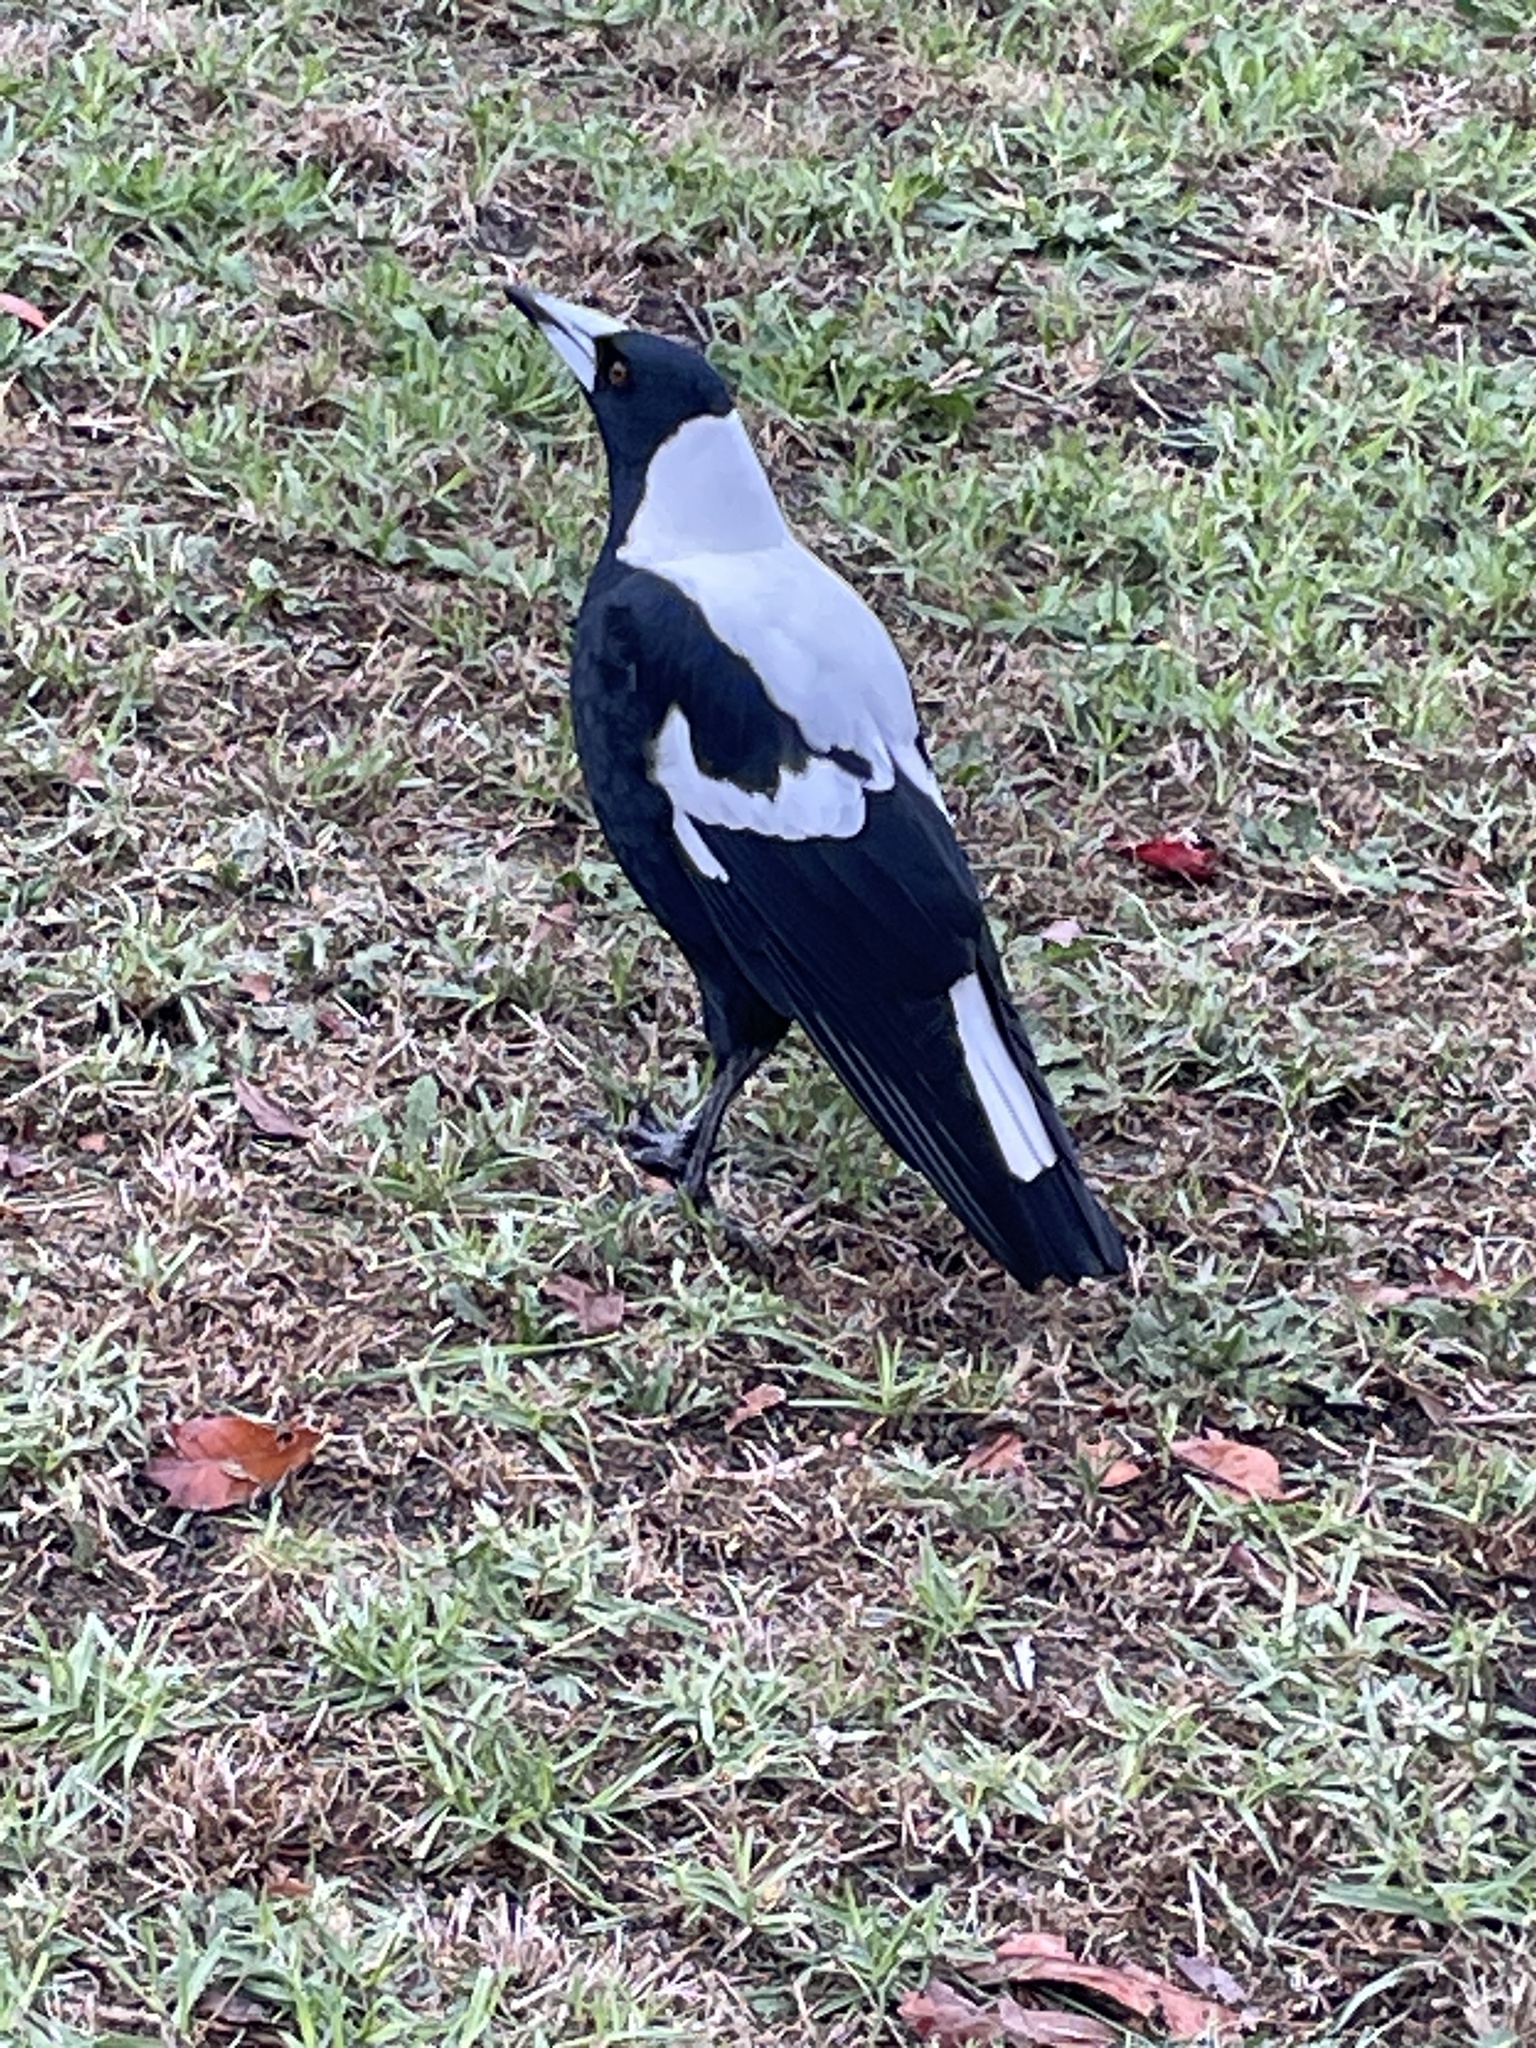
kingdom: Animalia
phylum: Chordata
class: Aves
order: Passeriformes
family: Cracticidae
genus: Gymnorhina
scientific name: Gymnorhina tibicen
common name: Australian magpie
